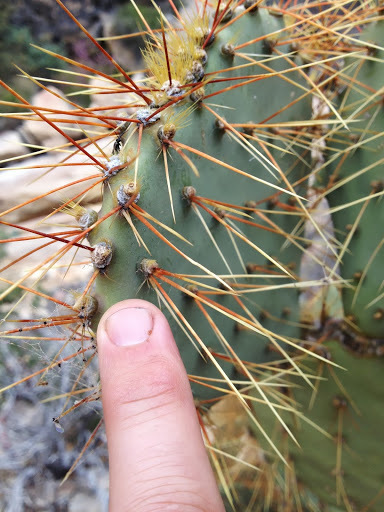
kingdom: Plantae
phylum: Tracheophyta
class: Magnoliopsida
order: Caryophyllales
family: Cactaceae
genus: Opuntia
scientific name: Opuntia phaeacantha
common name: New mexico prickly-pear
